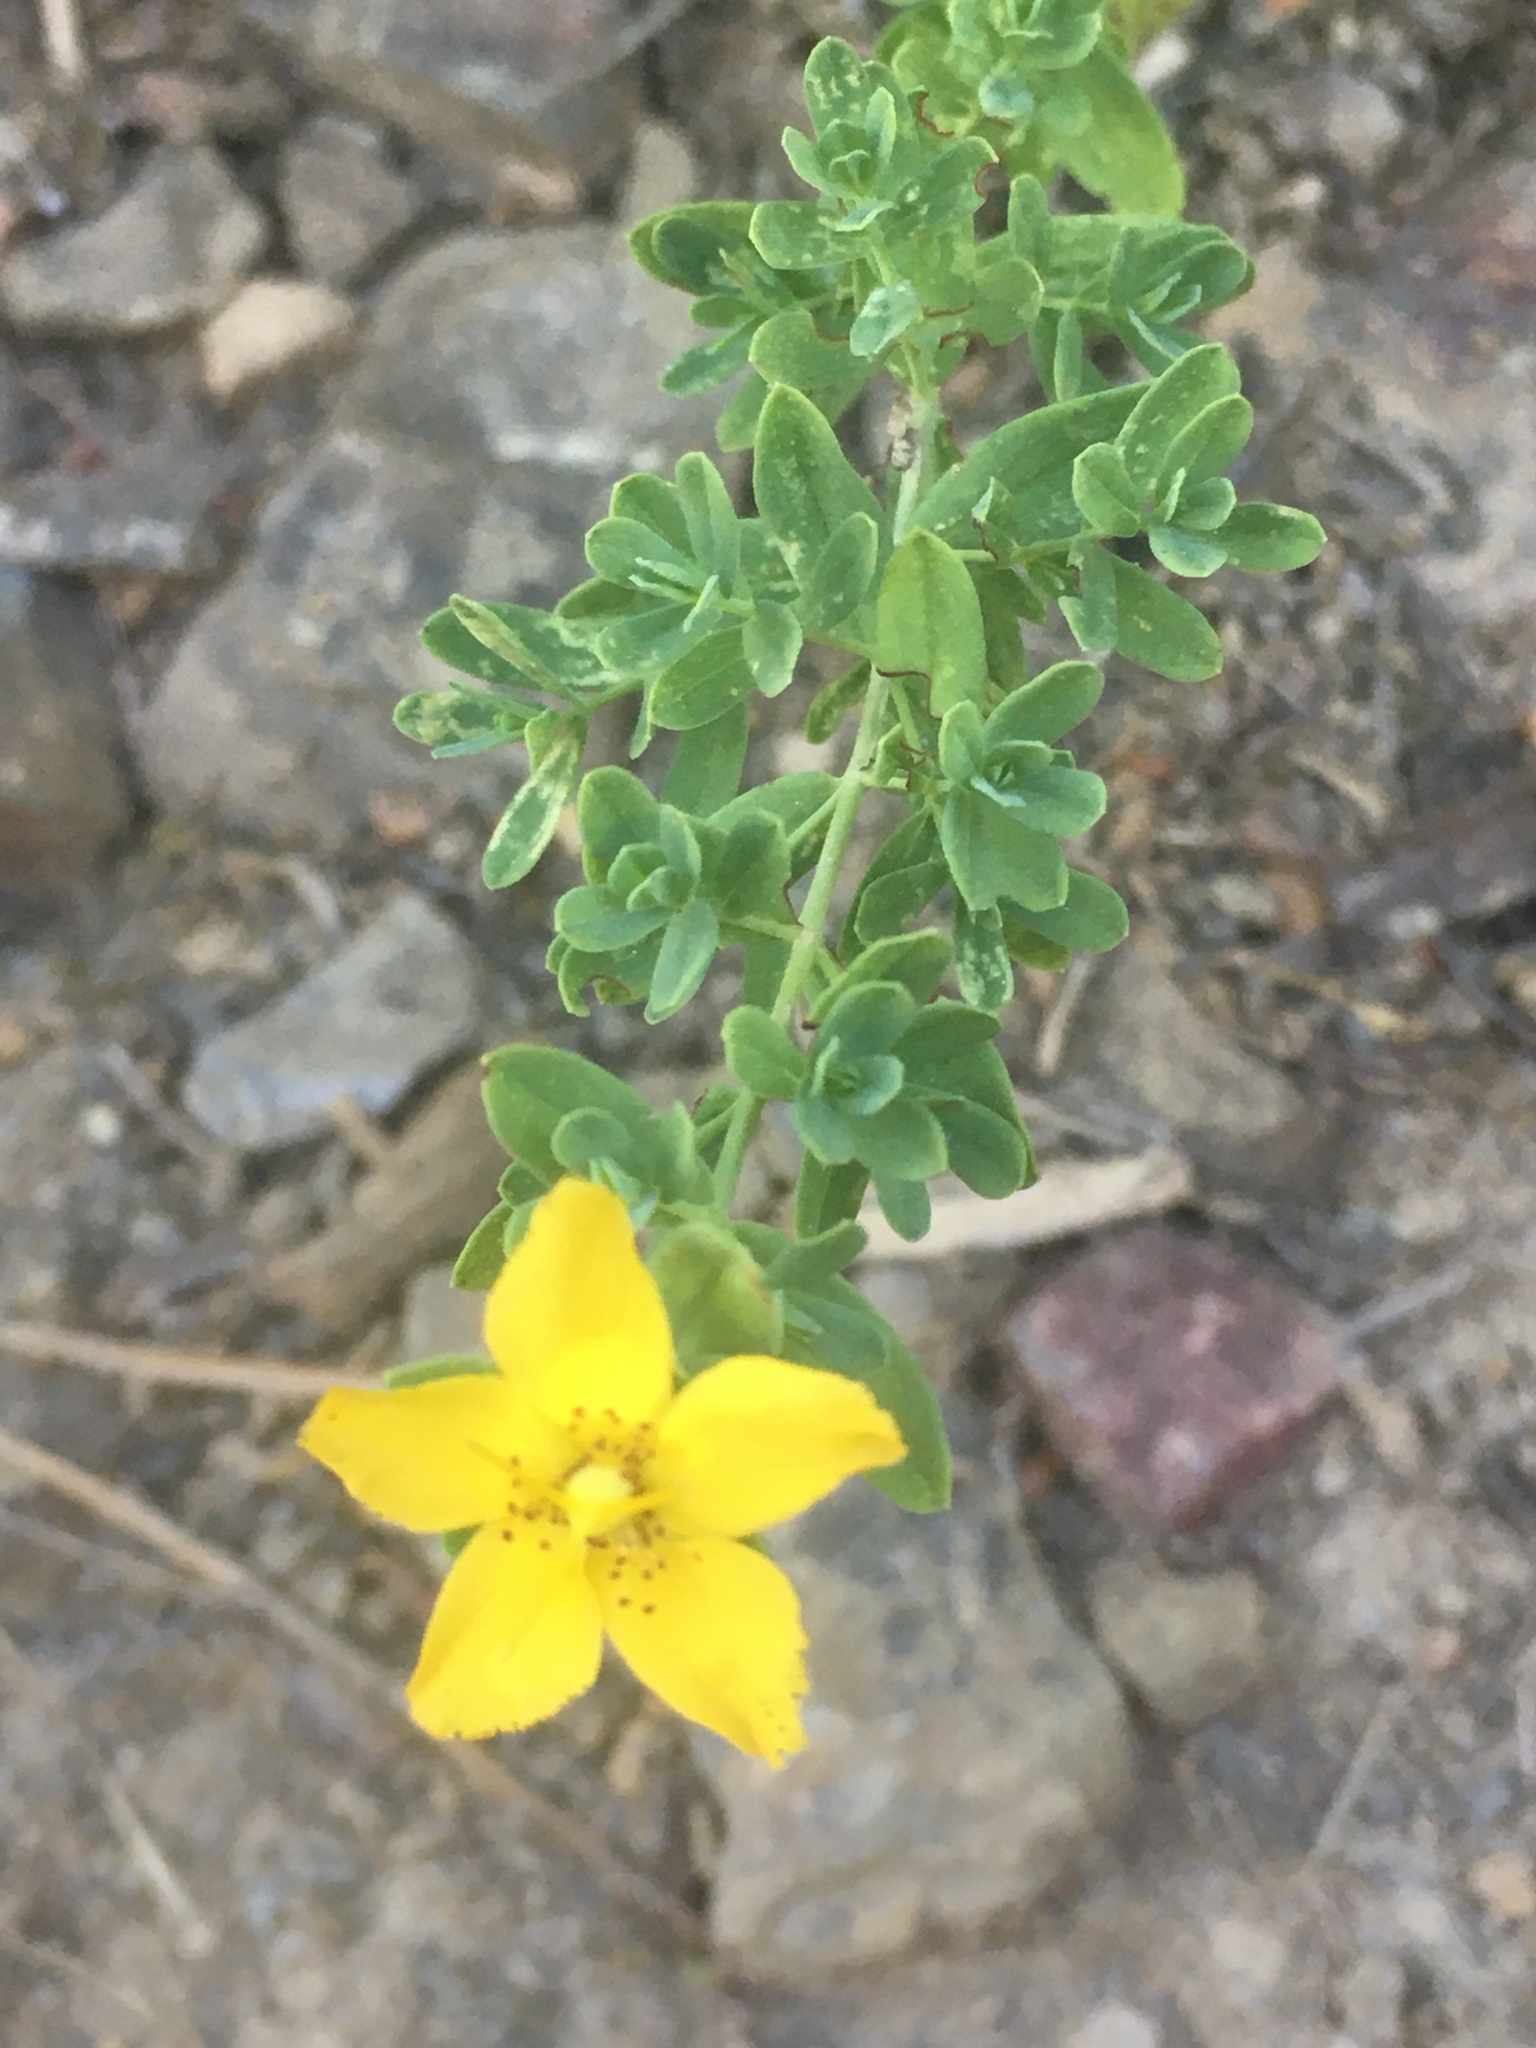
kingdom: Plantae
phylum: Tracheophyta
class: Magnoliopsida
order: Malpighiales
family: Hypericaceae
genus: Hypericum
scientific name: Hypericum perforatum
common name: Common st. johnswort
